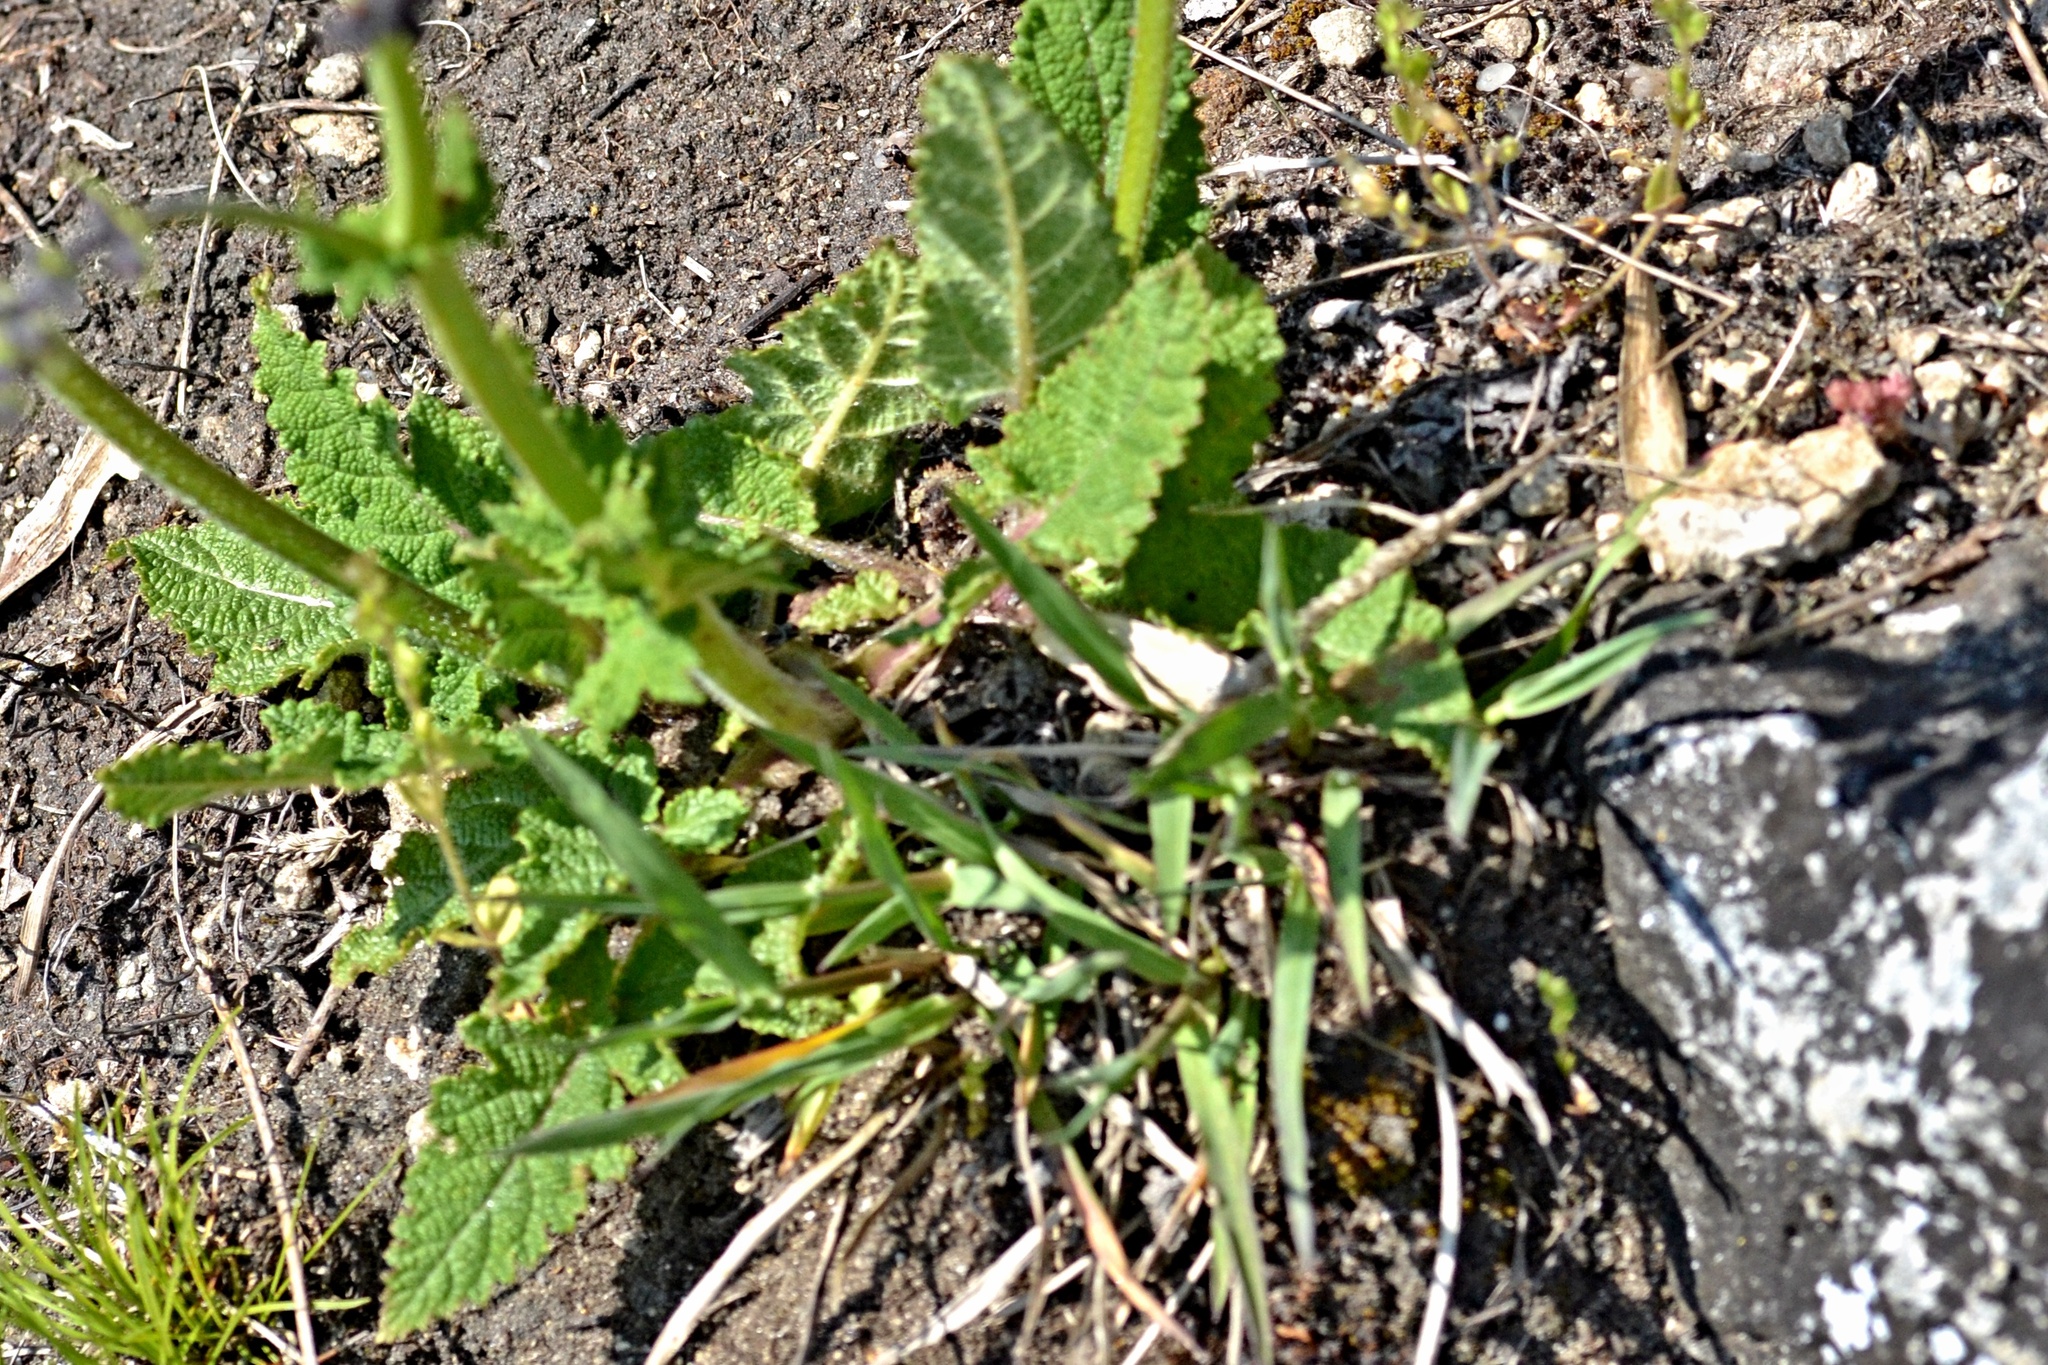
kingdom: Plantae
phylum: Tracheophyta
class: Magnoliopsida
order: Lamiales
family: Lamiaceae
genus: Salvia
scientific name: Salvia pratensis
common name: Meadow sage
